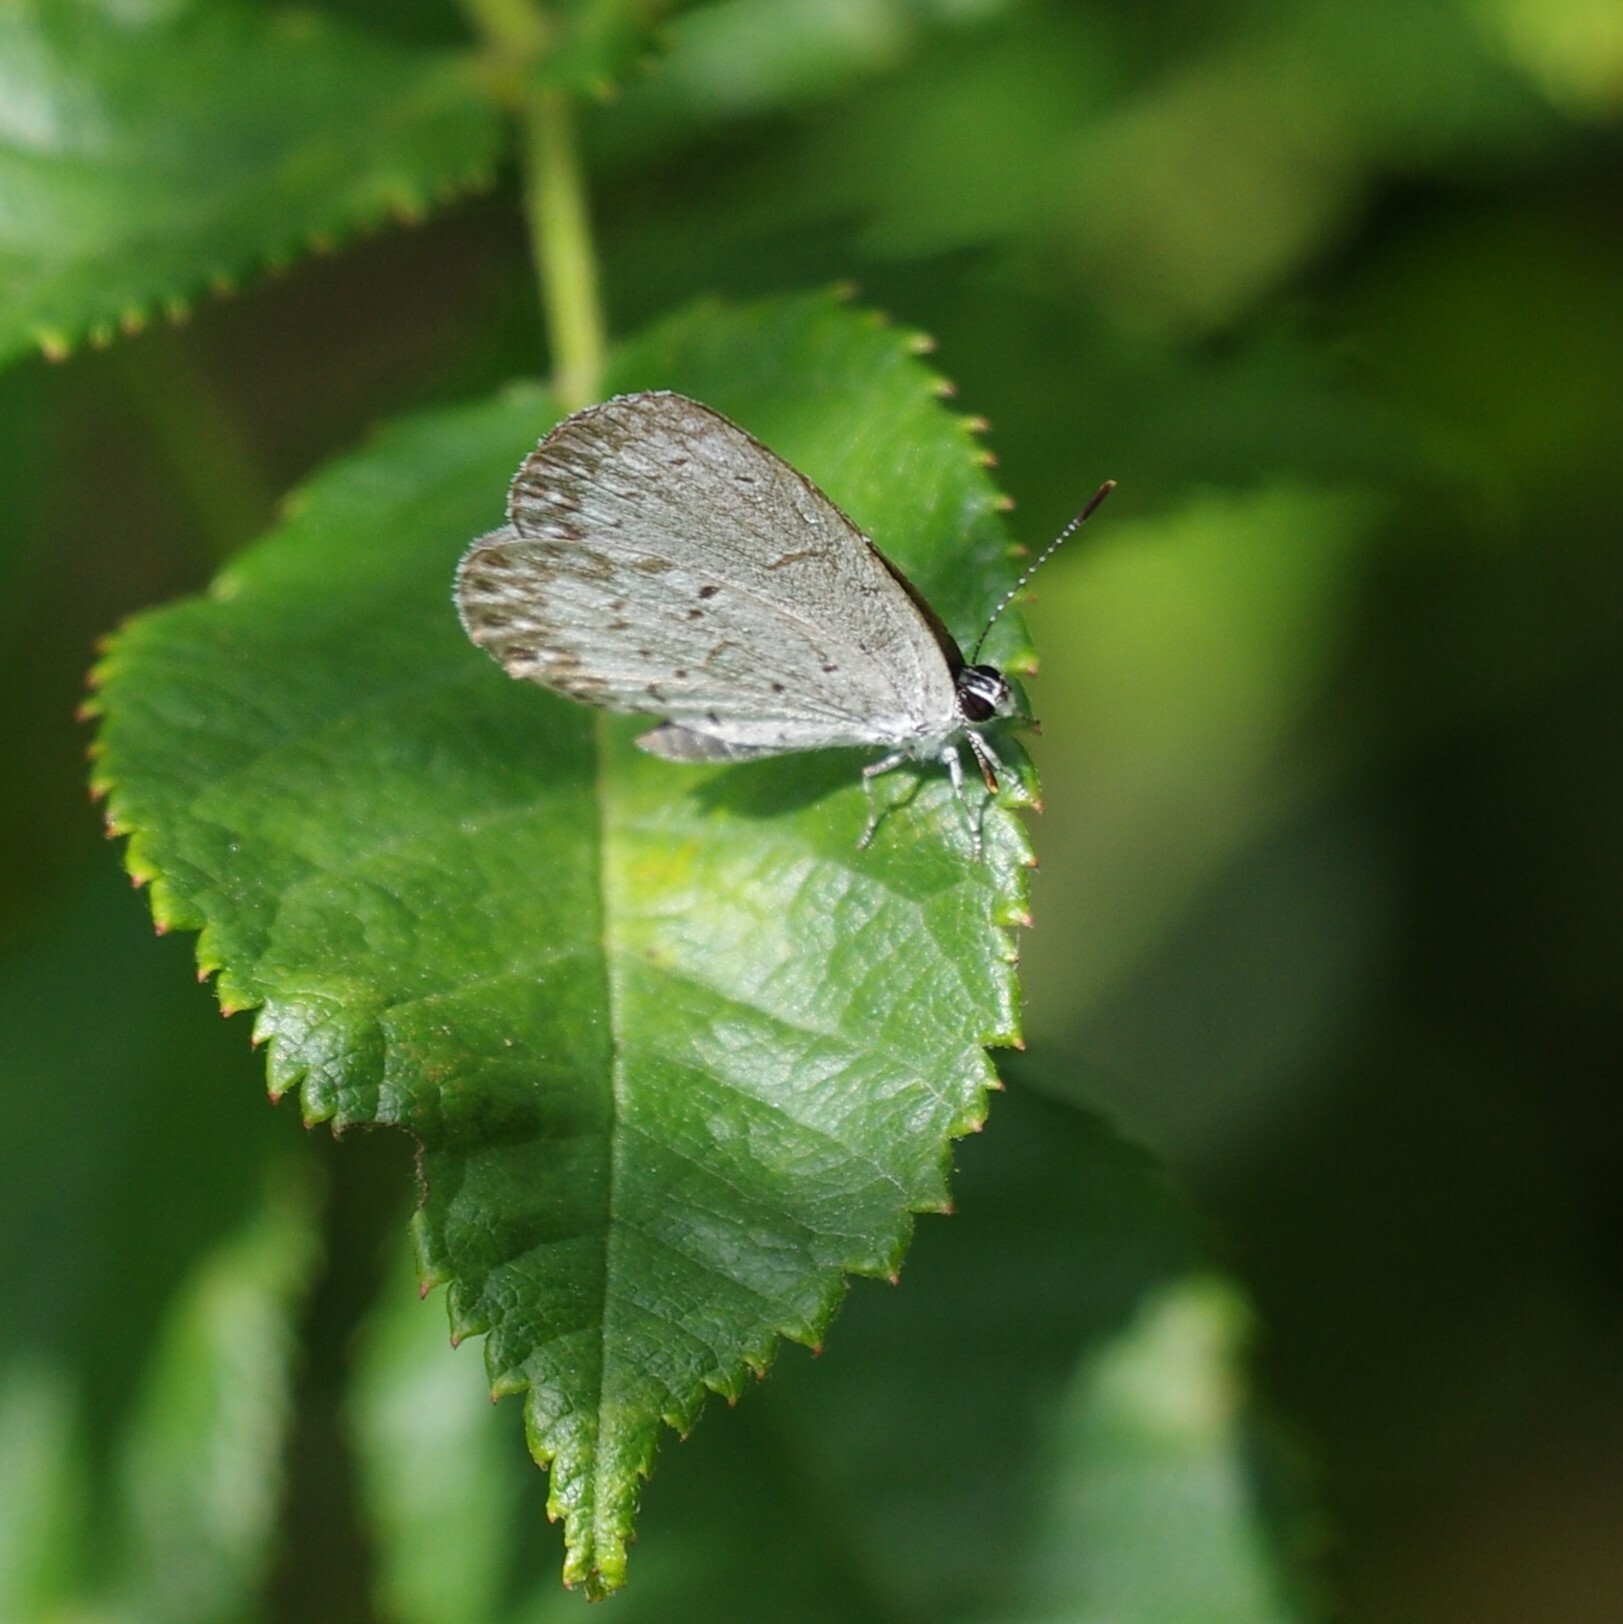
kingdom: Animalia
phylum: Arthropoda
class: Insecta
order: Lepidoptera
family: Lycaenidae
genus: Cyaniris
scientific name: Cyaniris neglecta
